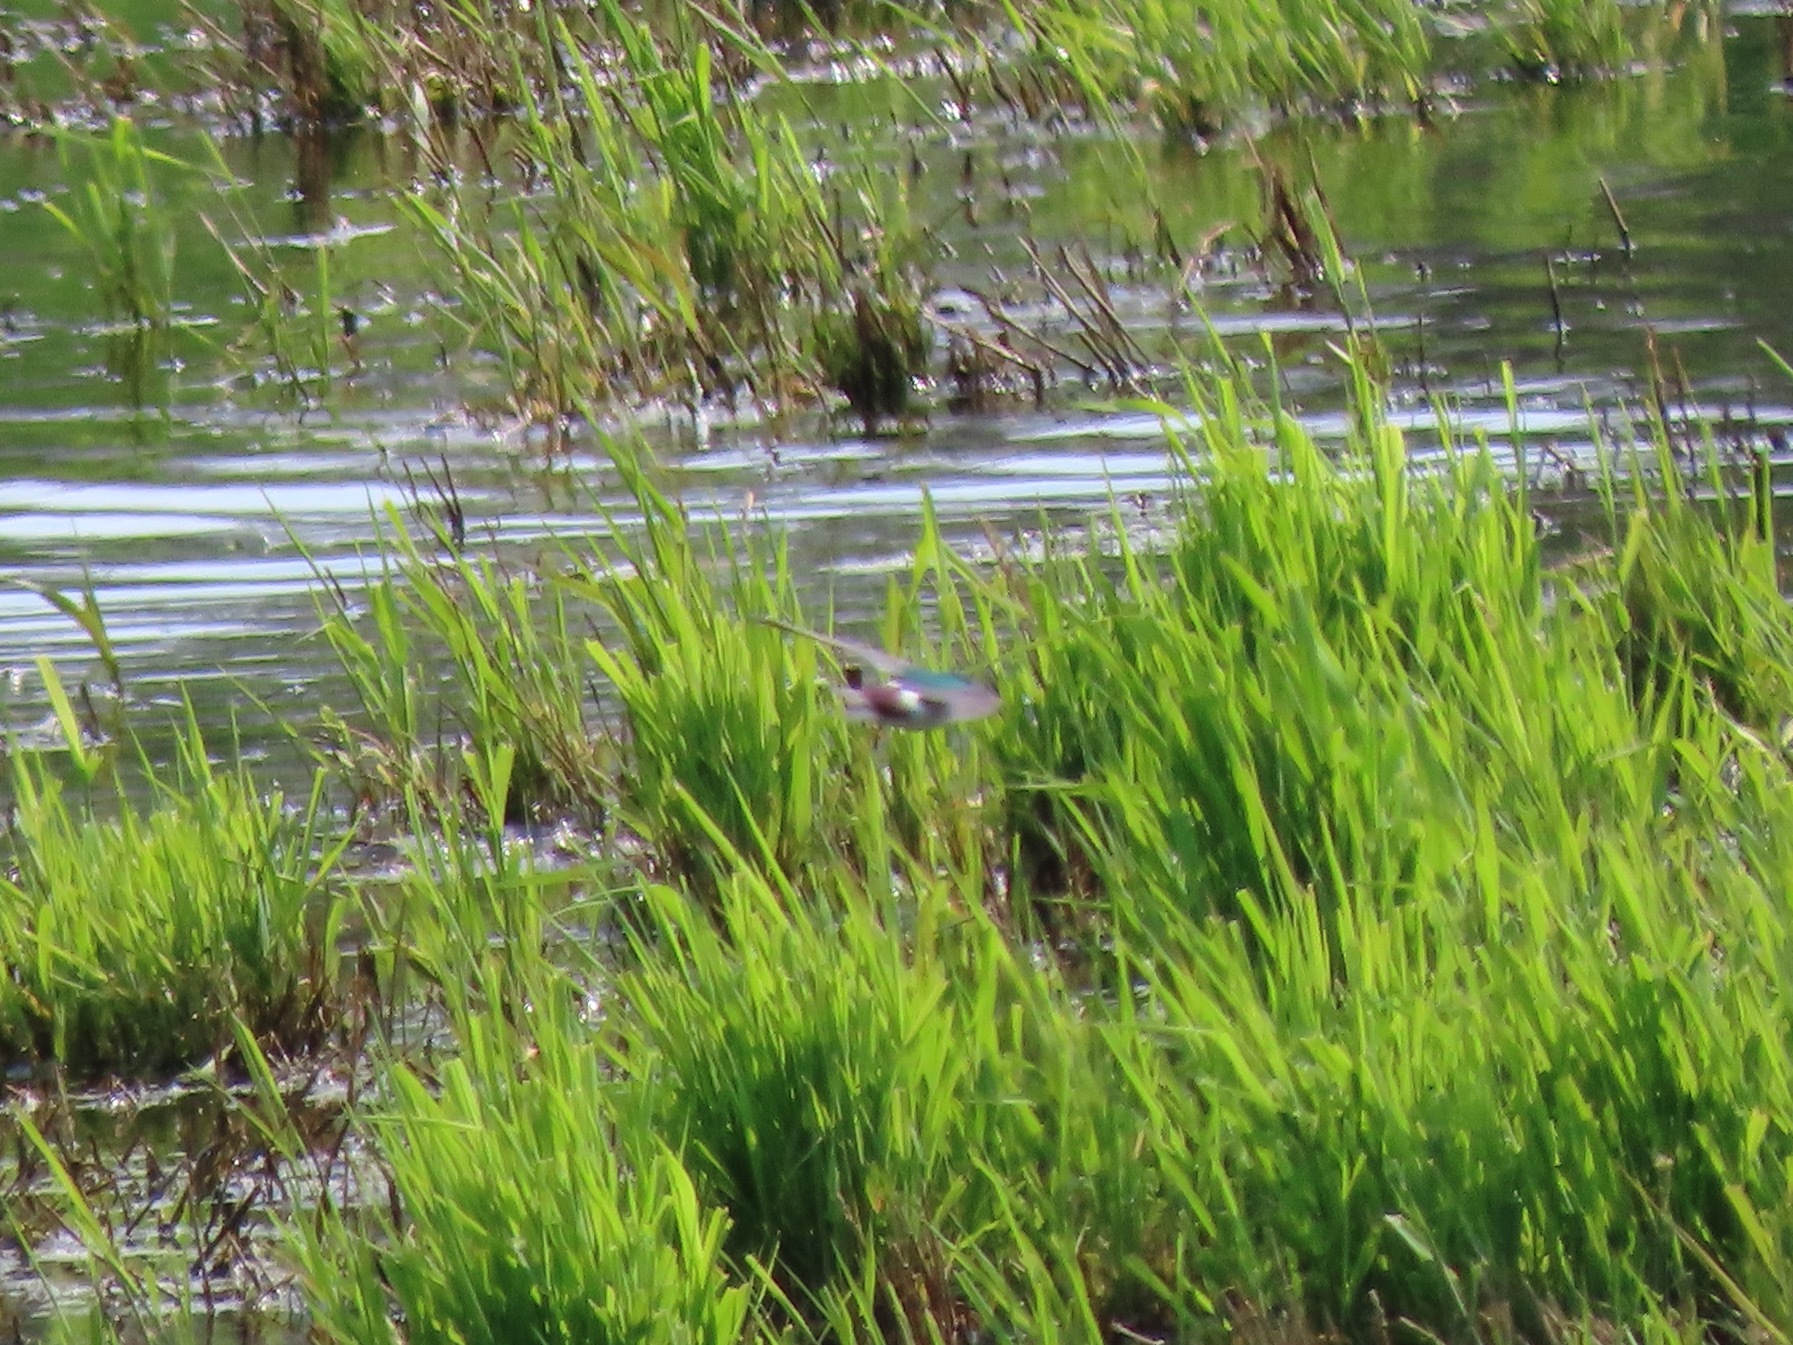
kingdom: Animalia
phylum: Chordata
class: Aves
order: Passeriformes
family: Hirundinidae
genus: Tachycineta
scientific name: Tachycineta thalassina
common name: Violet-green swallow
